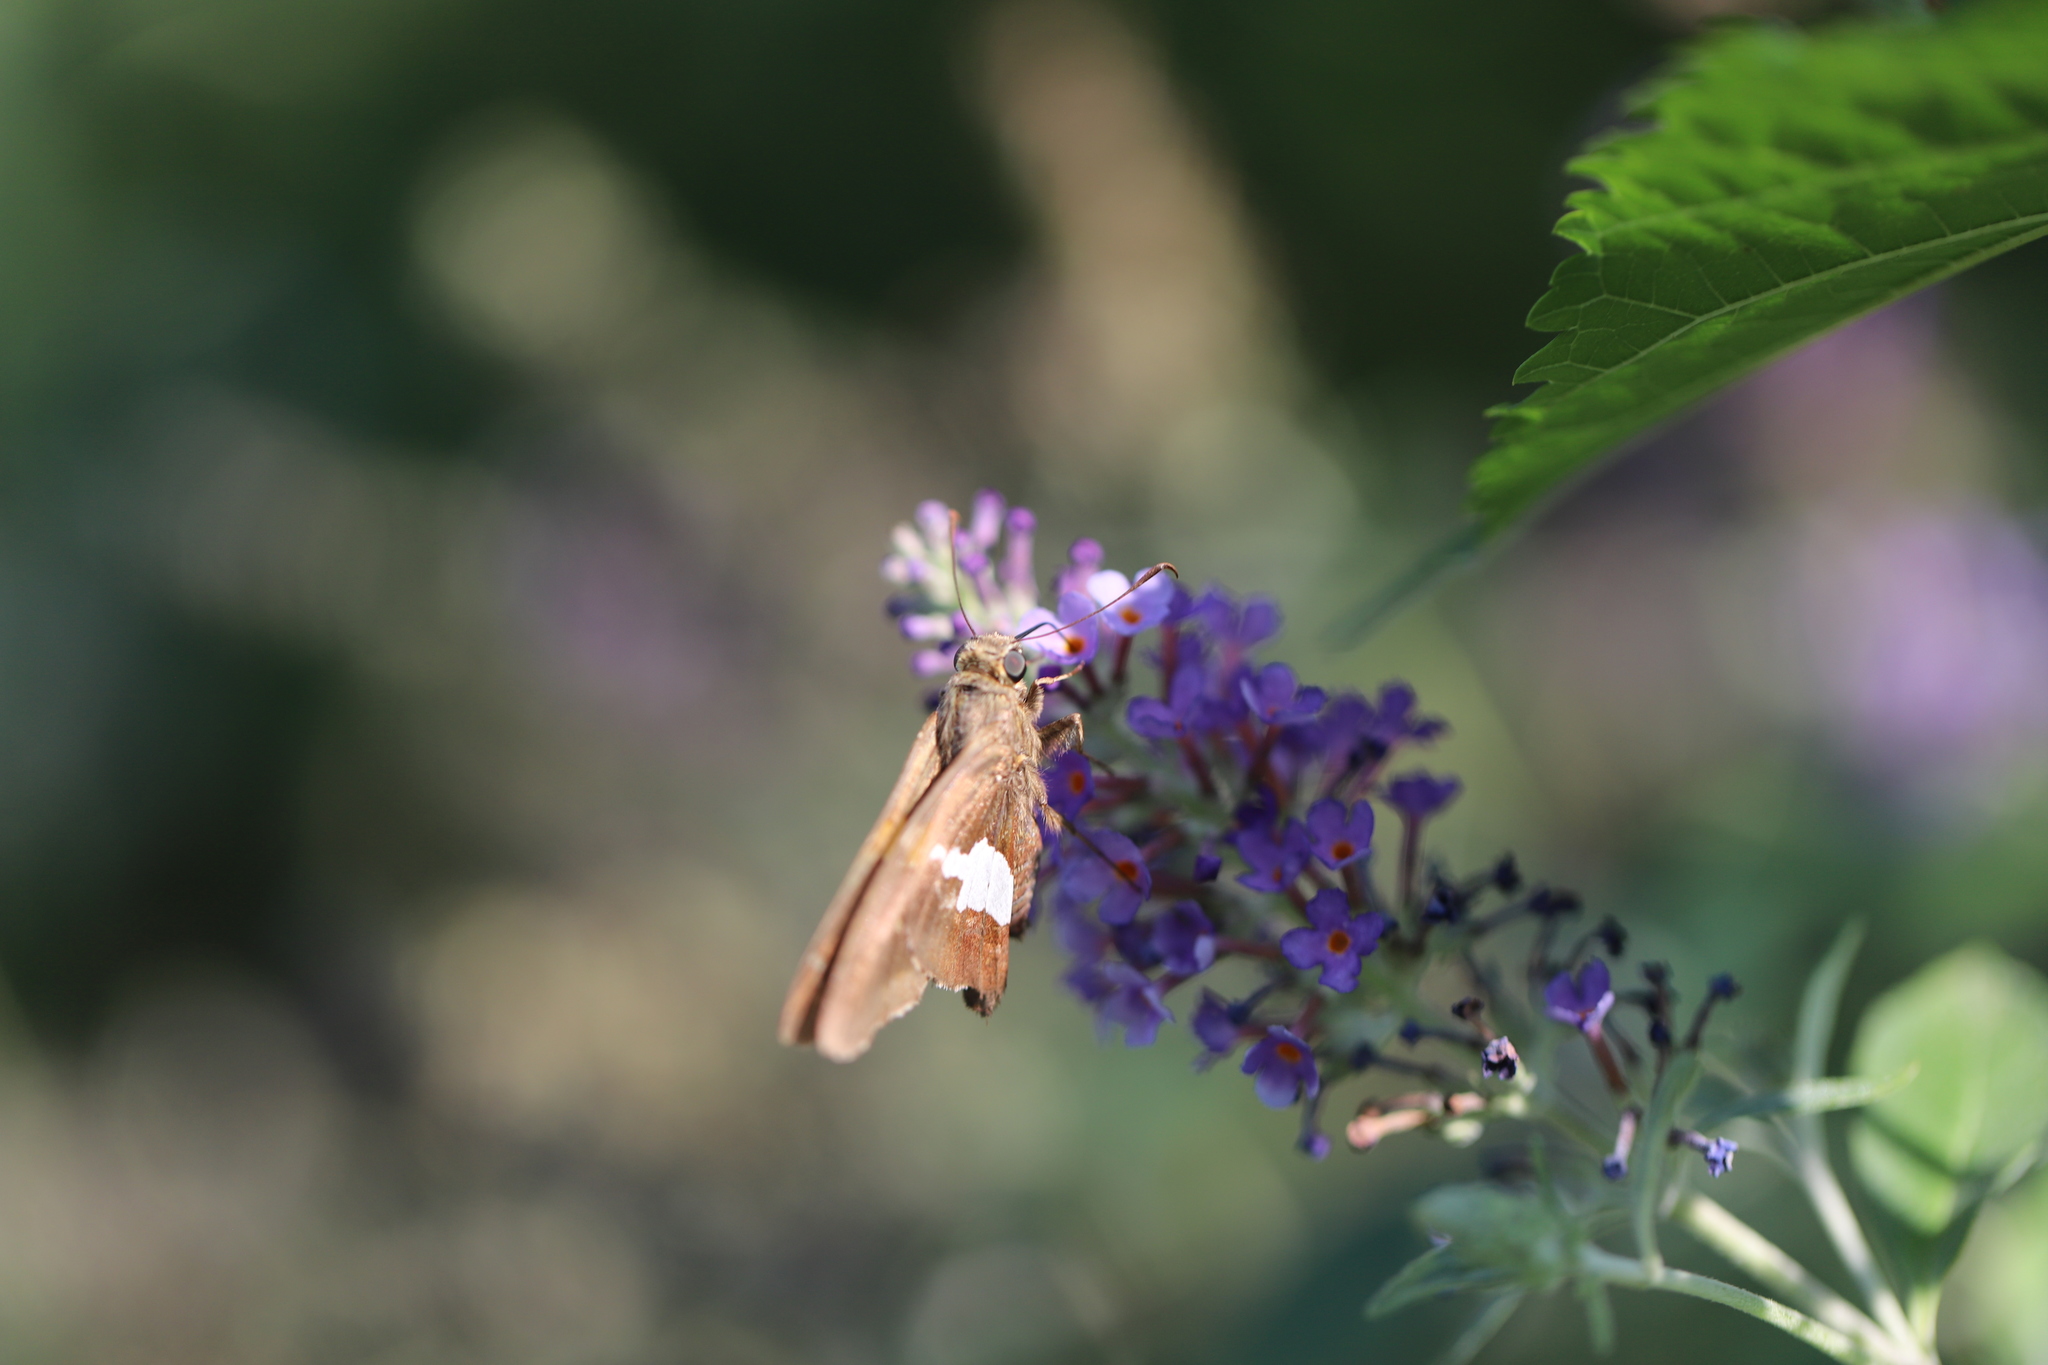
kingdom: Animalia
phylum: Arthropoda
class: Insecta
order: Lepidoptera
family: Hesperiidae
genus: Epargyreus
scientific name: Epargyreus clarus
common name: Silver-spotted skipper
